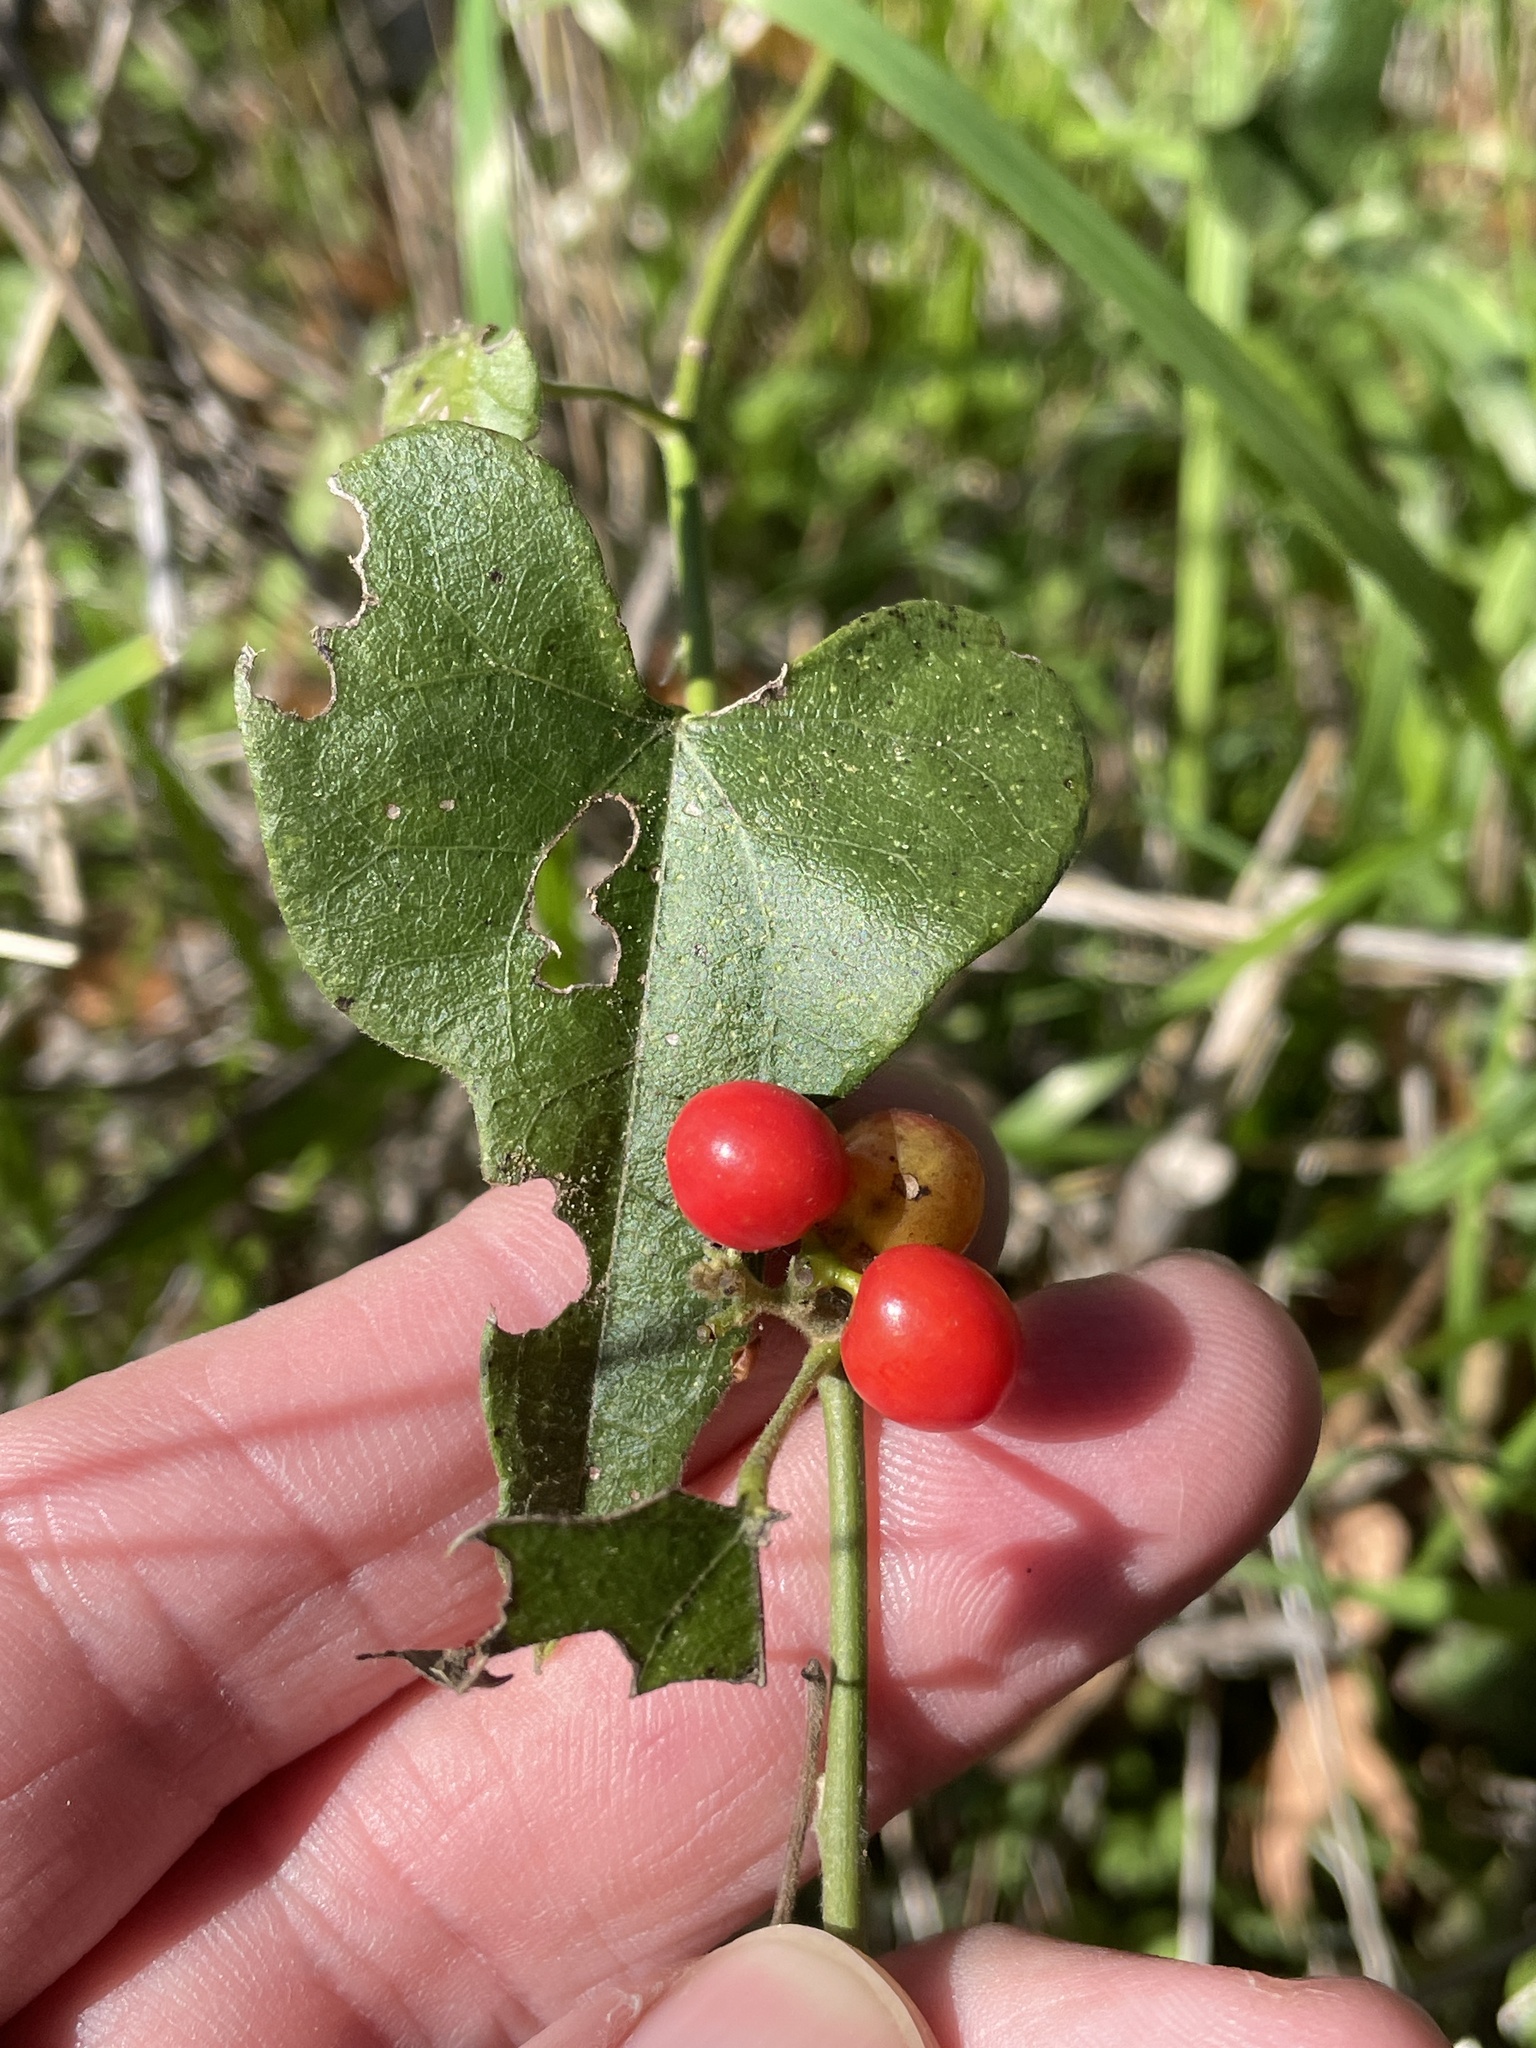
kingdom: Plantae
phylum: Tracheophyta
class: Magnoliopsida
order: Ranunculales
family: Menispermaceae
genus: Cocculus
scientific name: Cocculus carolinus
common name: Carolina moonseed
